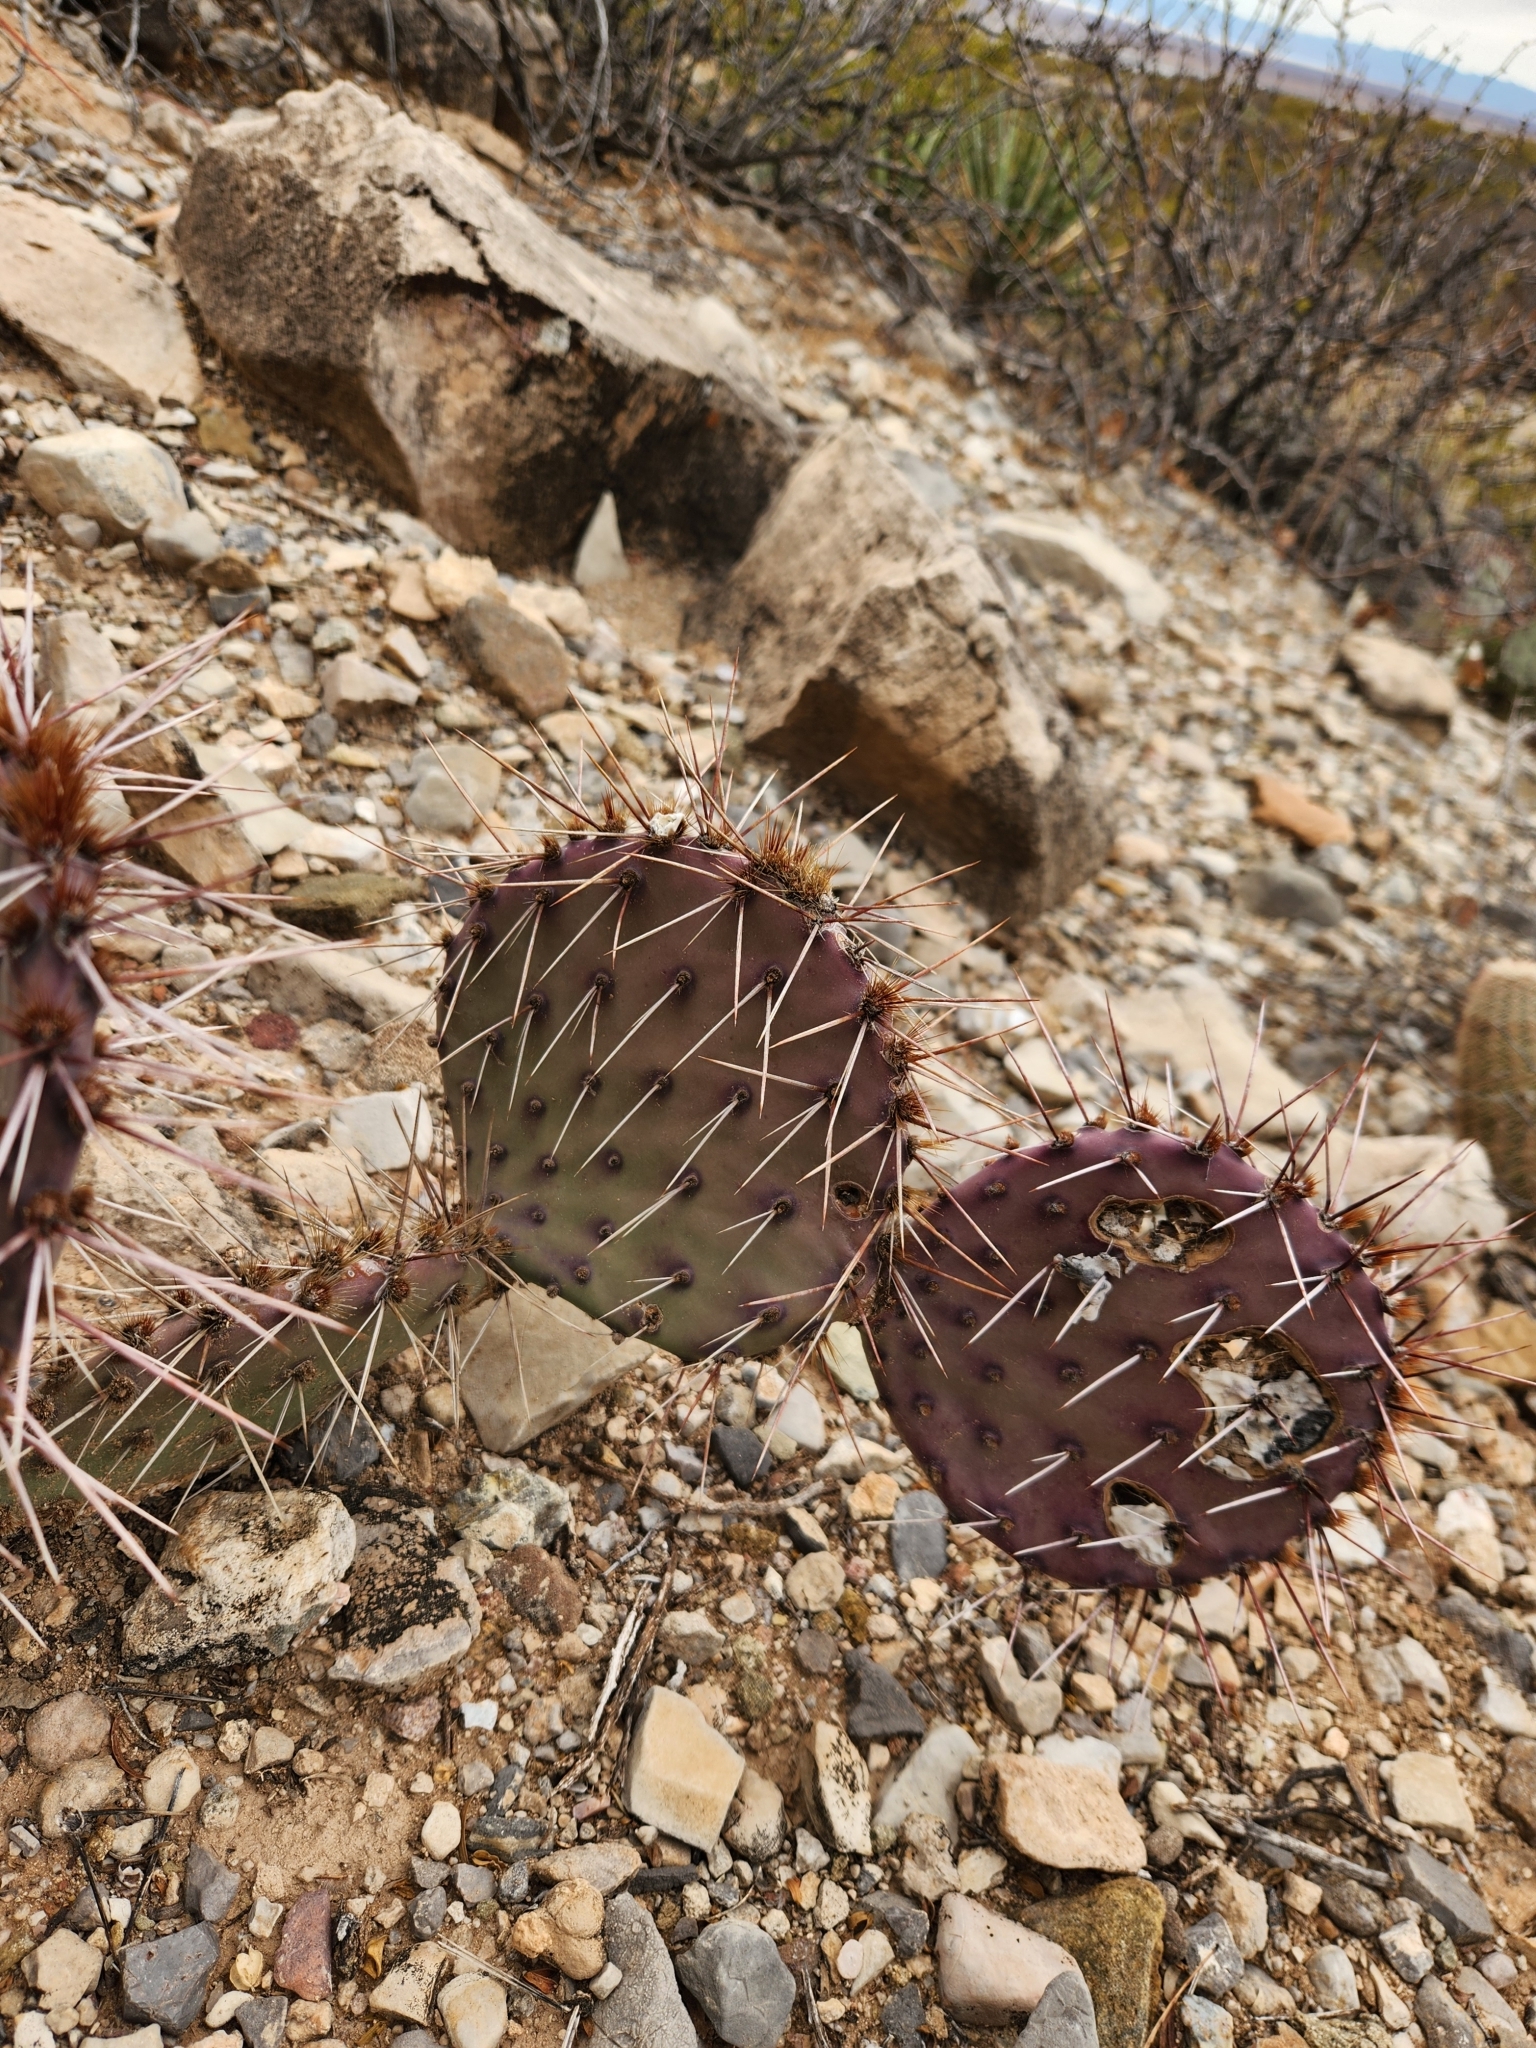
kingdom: Plantae
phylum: Tracheophyta
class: Magnoliopsida
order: Caryophyllales
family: Cactaceae
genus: Opuntia
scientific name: Opuntia macrocentra
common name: Purple prickly-pear
